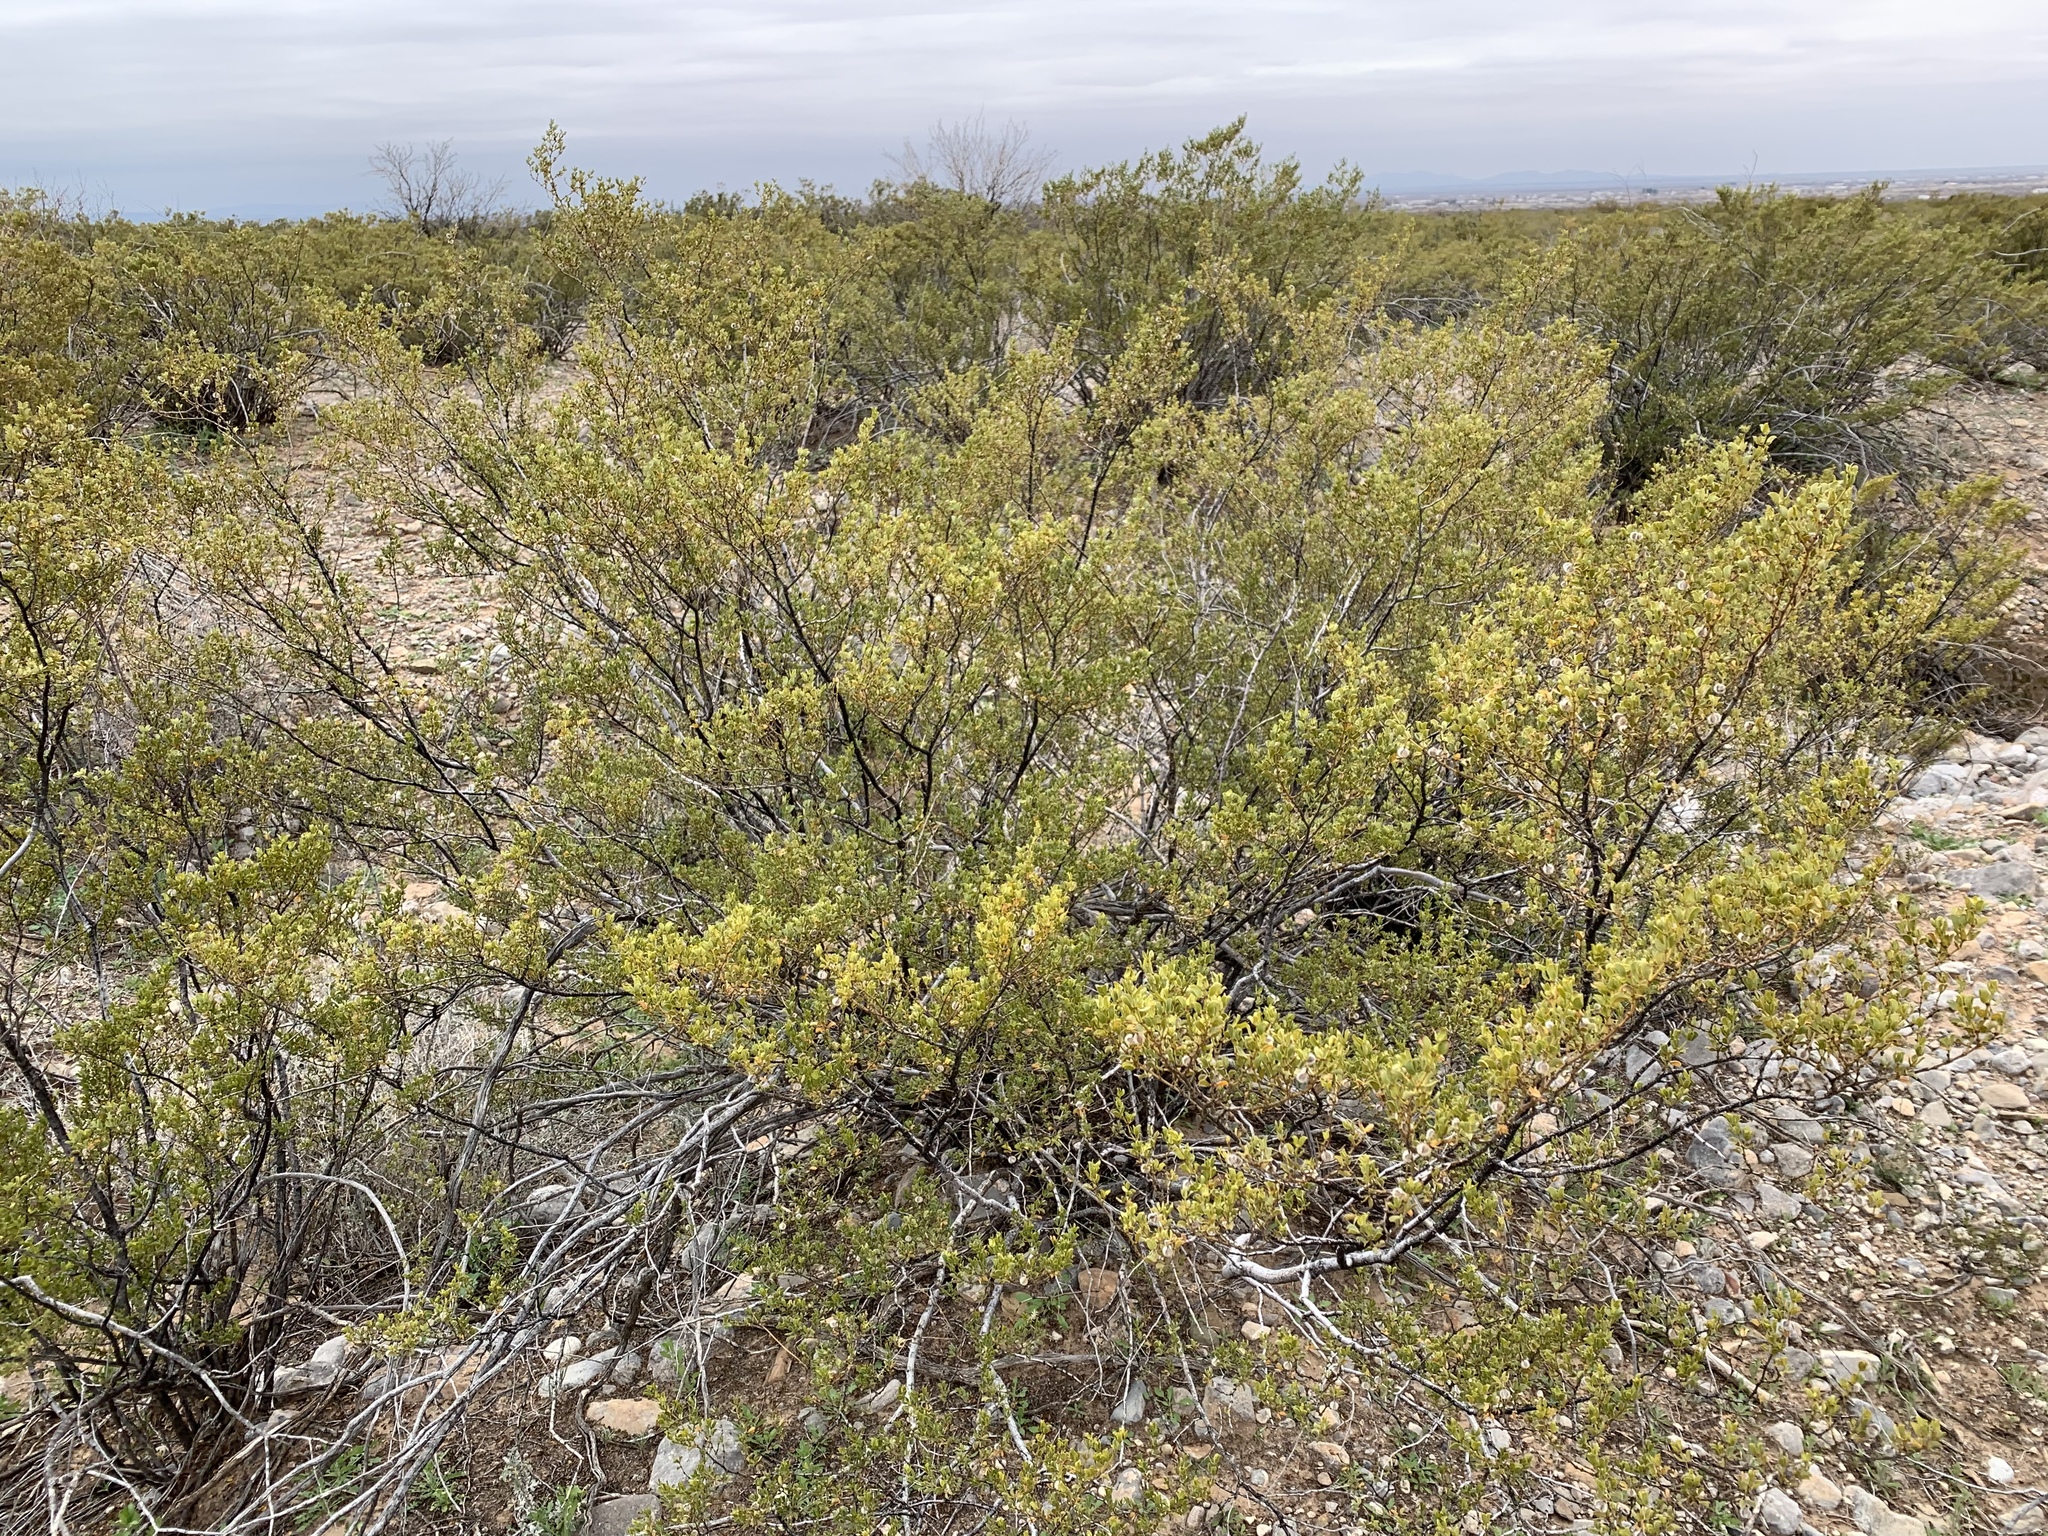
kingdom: Plantae
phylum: Tracheophyta
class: Magnoliopsida
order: Zygophyllales
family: Zygophyllaceae
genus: Larrea
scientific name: Larrea tridentata
